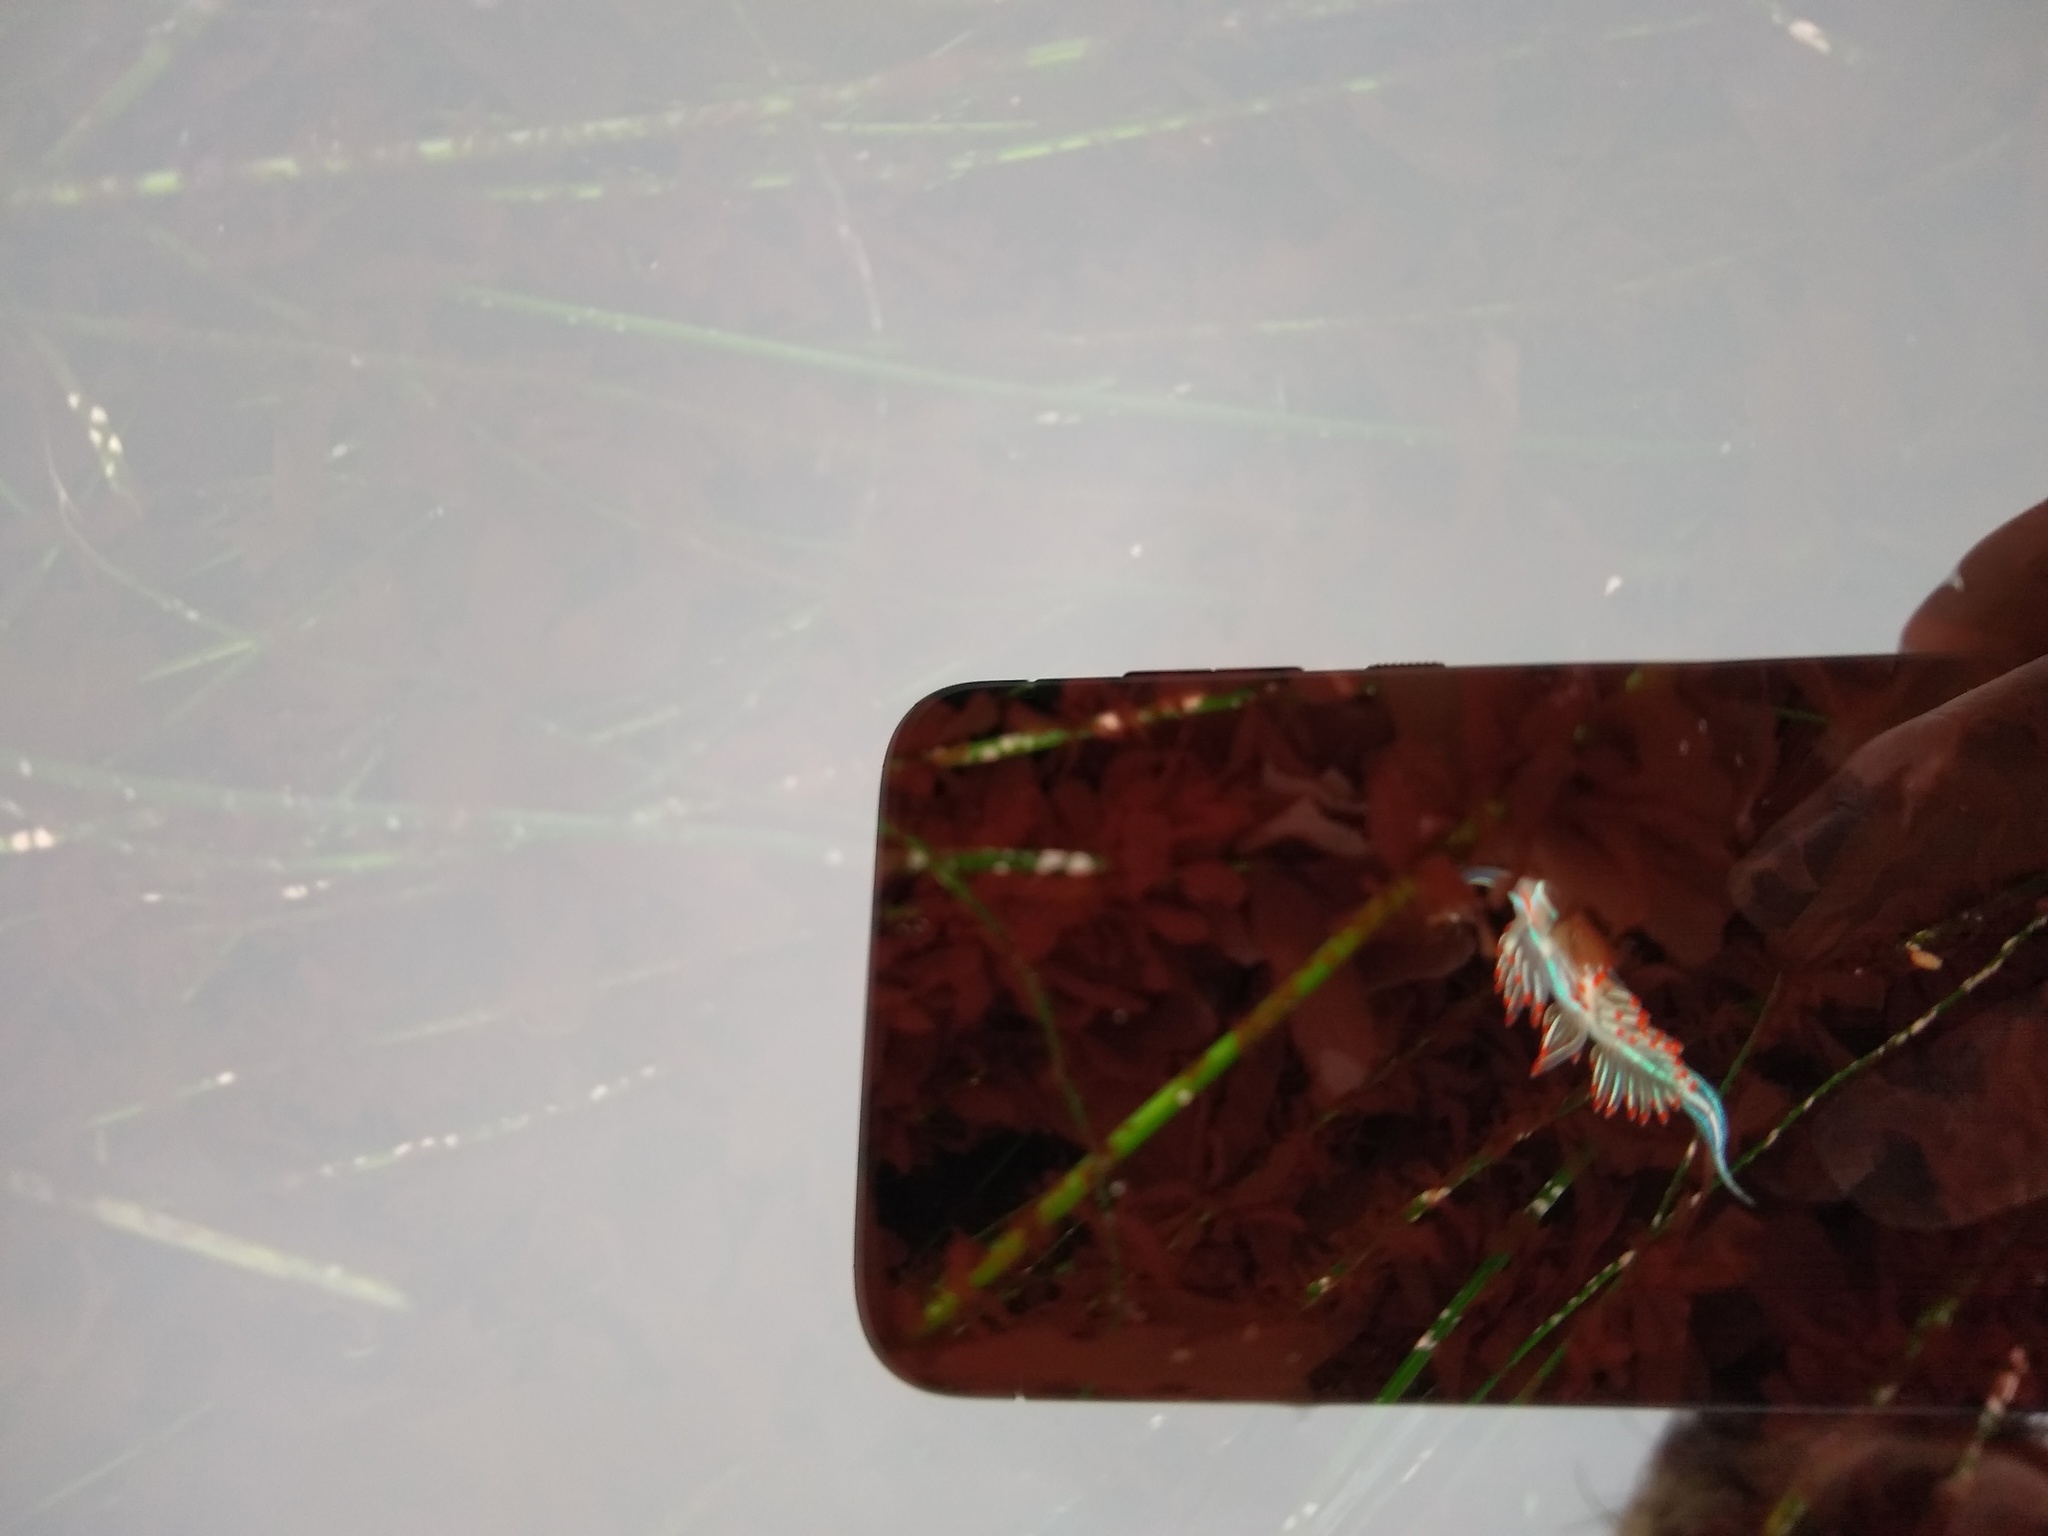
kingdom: Animalia
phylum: Mollusca
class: Gastropoda
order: Nudibranchia
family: Myrrhinidae
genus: Hermissenda
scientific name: Hermissenda crassicornis
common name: Hermissenda
